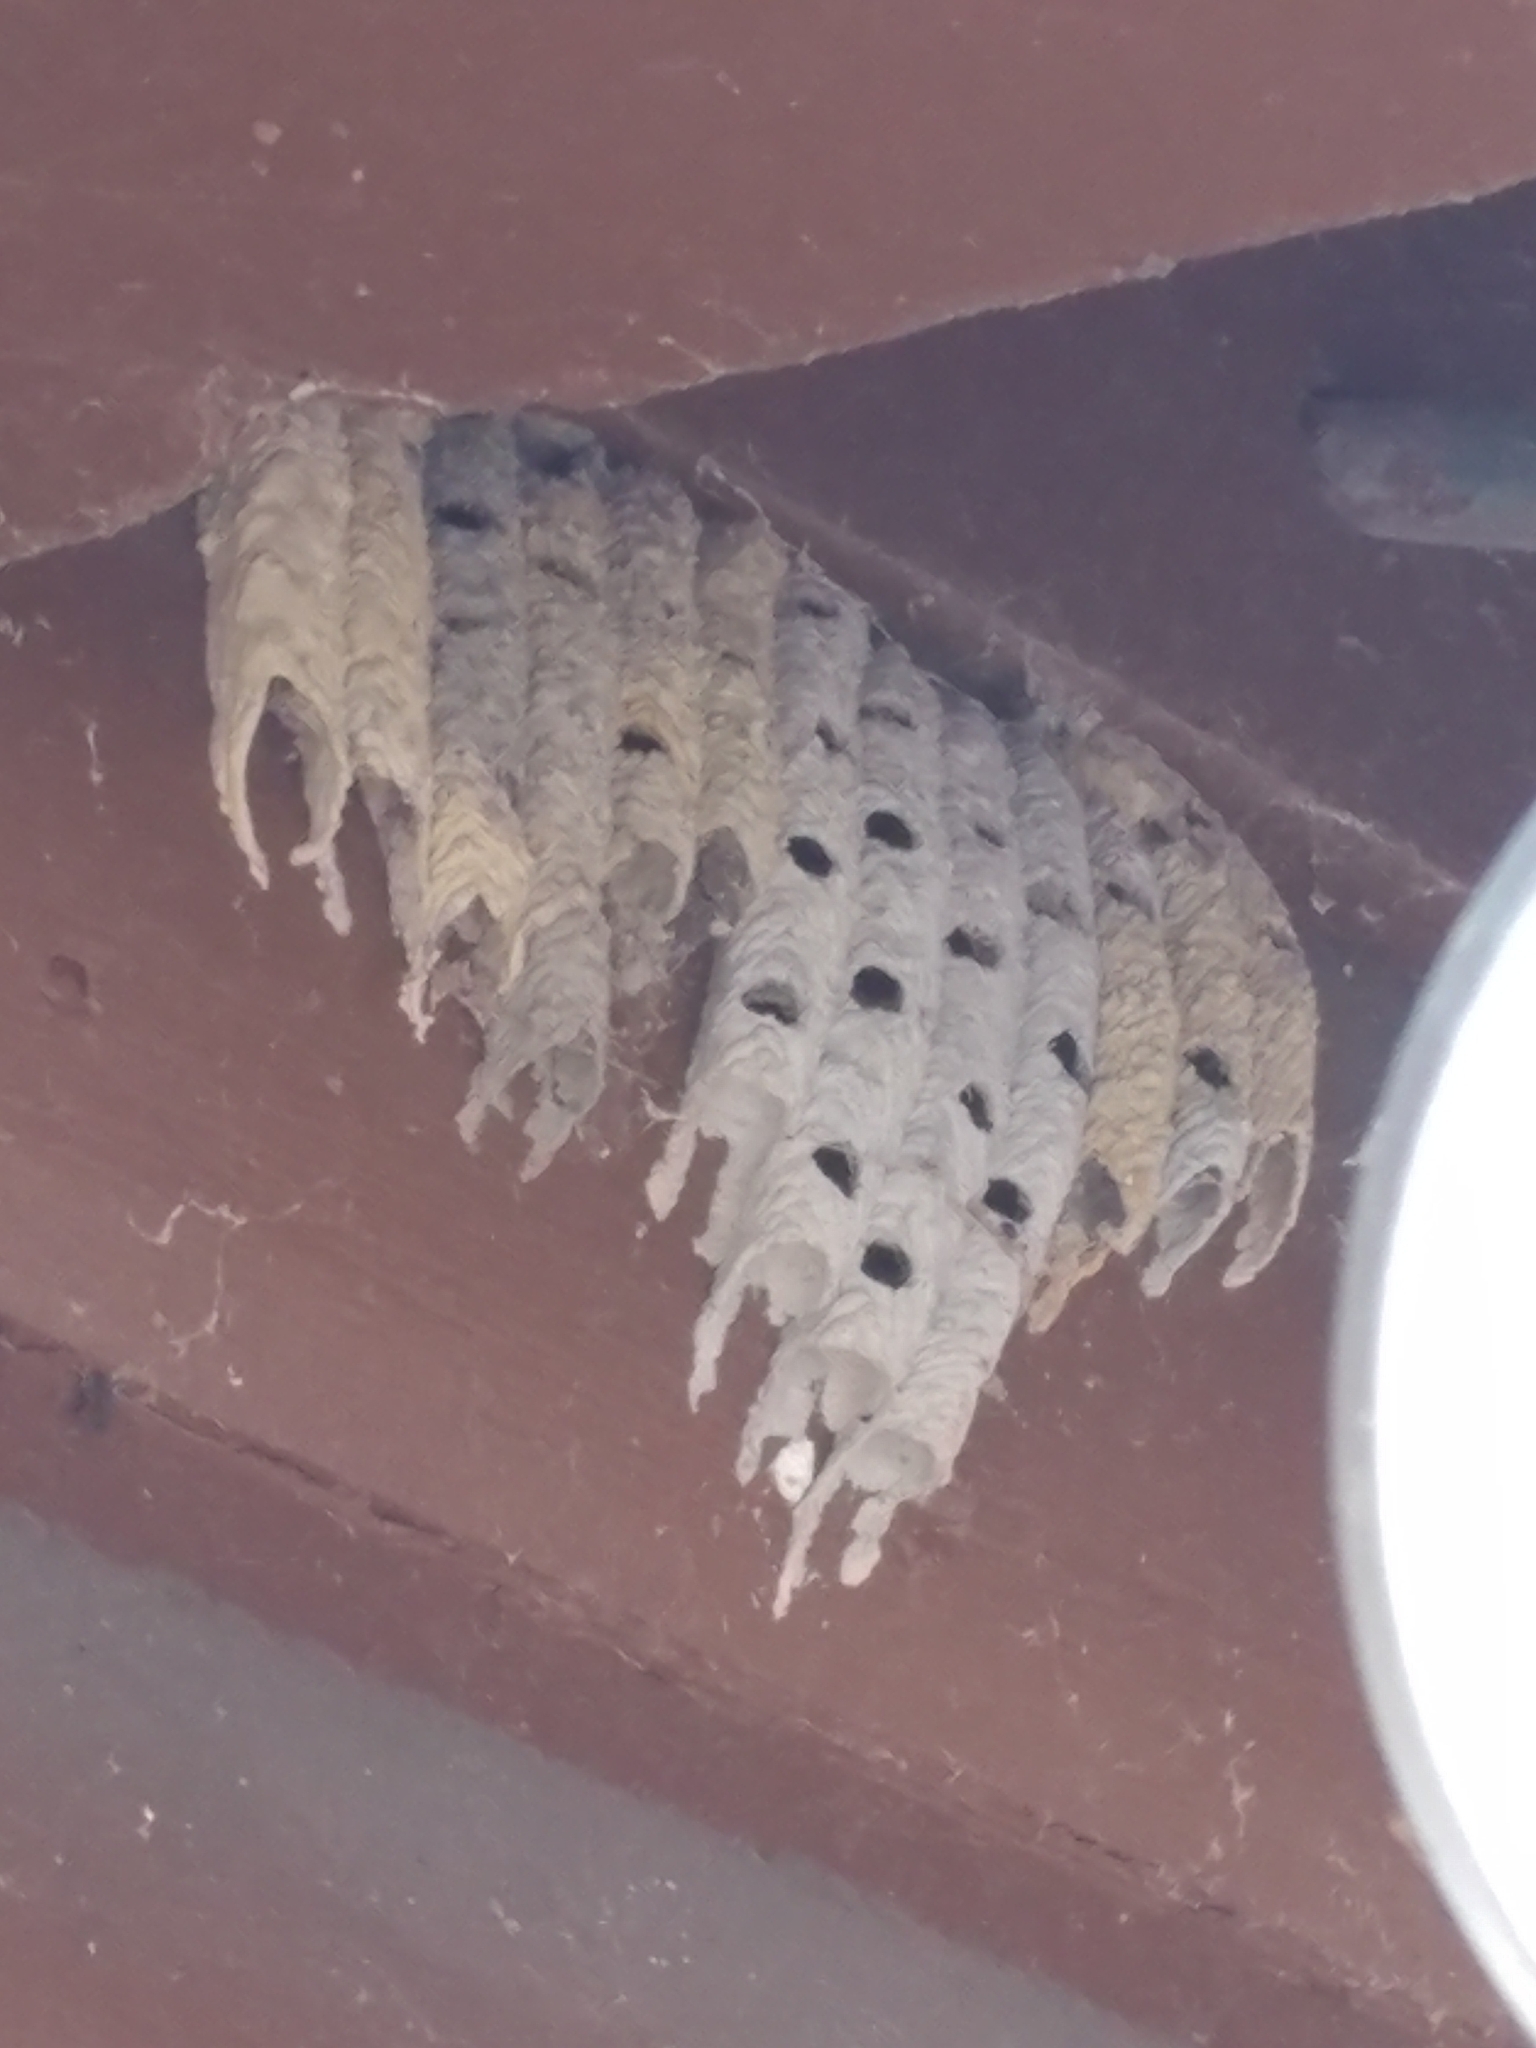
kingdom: Animalia
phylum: Arthropoda
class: Insecta
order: Hymenoptera
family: Crabronidae
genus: Trypoxylon
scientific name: Trypoxylon politum
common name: Organ-pipe mud-dauber wasp
